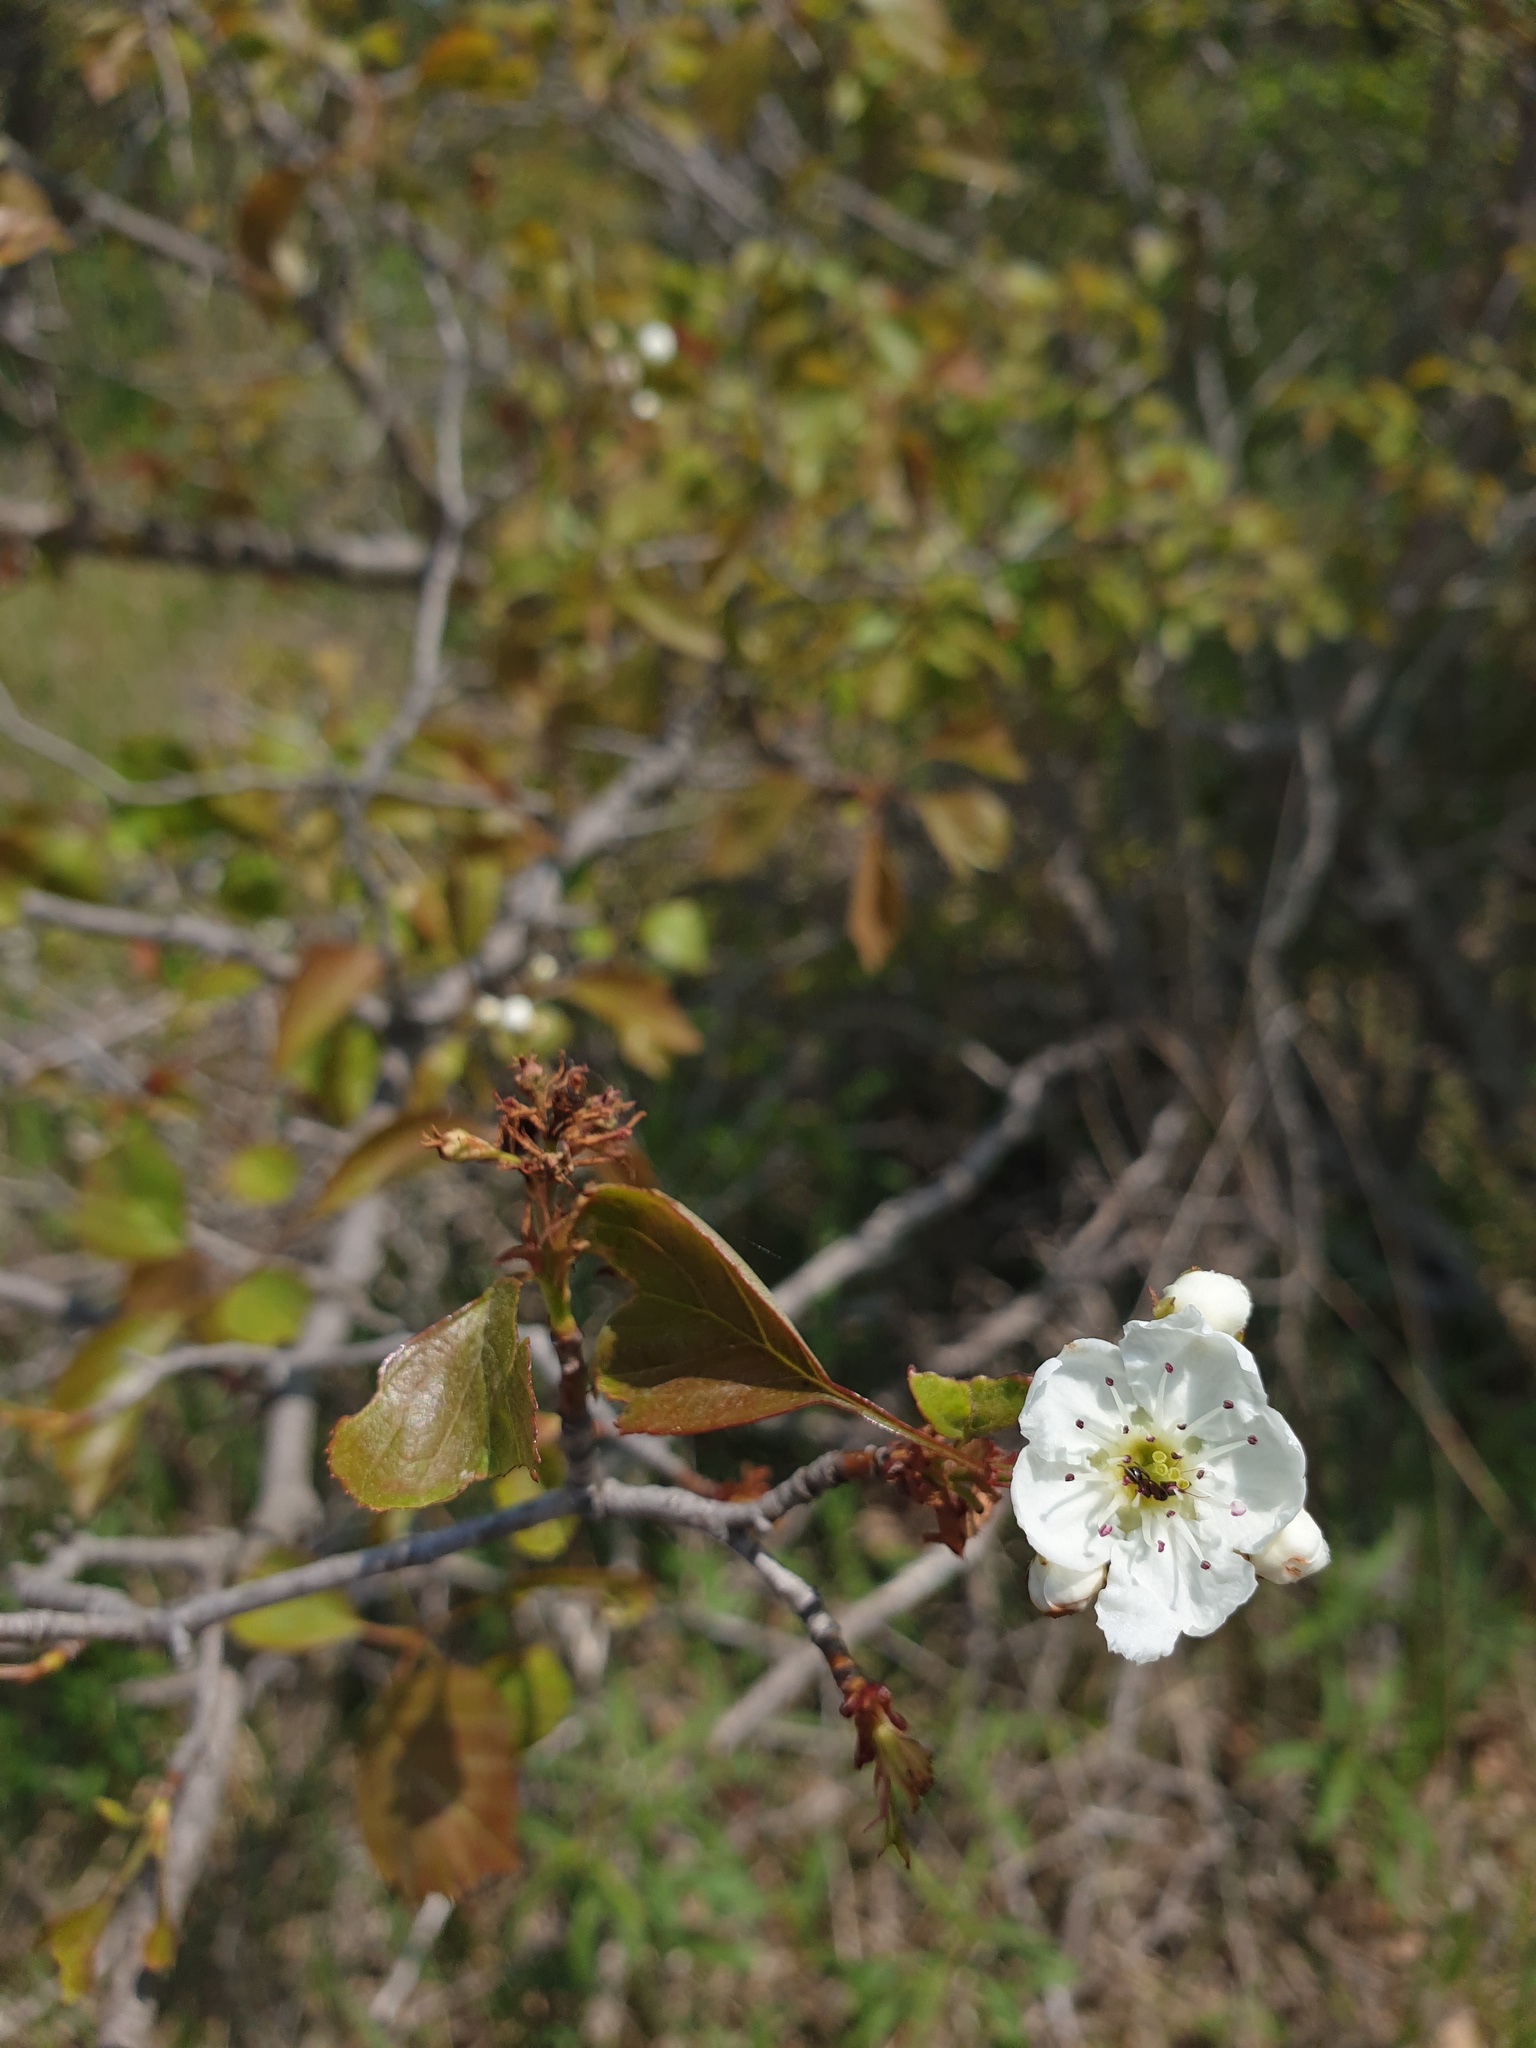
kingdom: Plantae
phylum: Tracheophyta
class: Magnoliopsida
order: Rosales
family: Rosaceae
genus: Crataegus
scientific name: Crataegus compacta
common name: Clustered hawthorn
